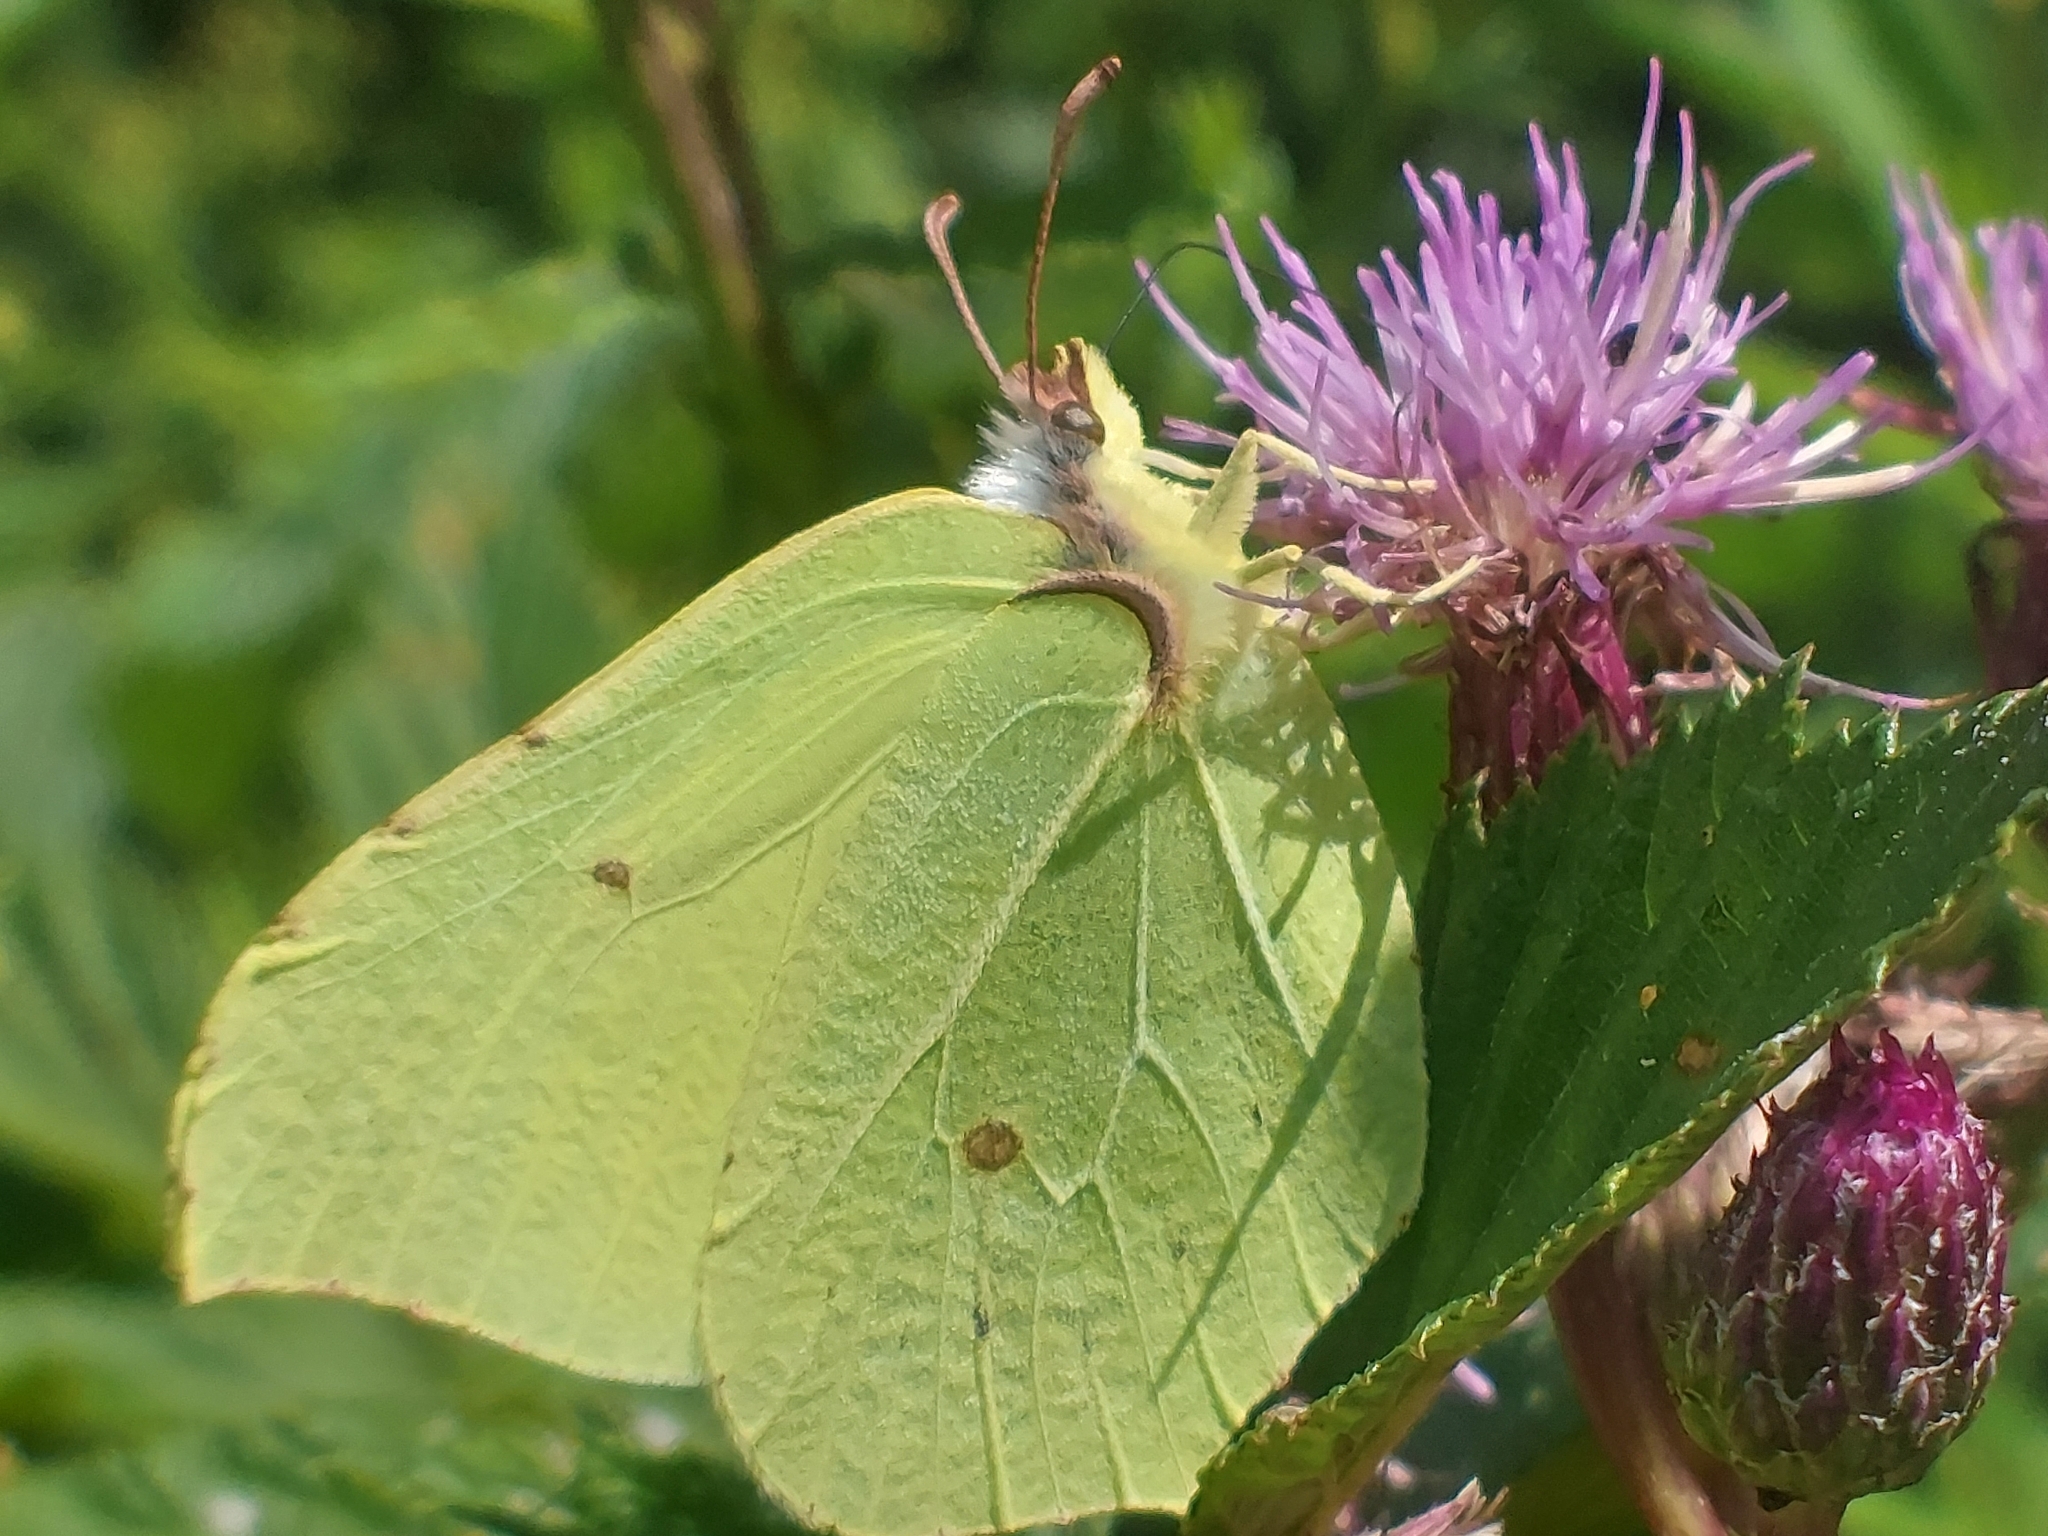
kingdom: Animalia
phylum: Arthropoda
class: Insecta
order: Lepidoptera
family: Pieridae
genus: Gonepteryx
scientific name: Gonepteryx rhamni
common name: Brimstone
